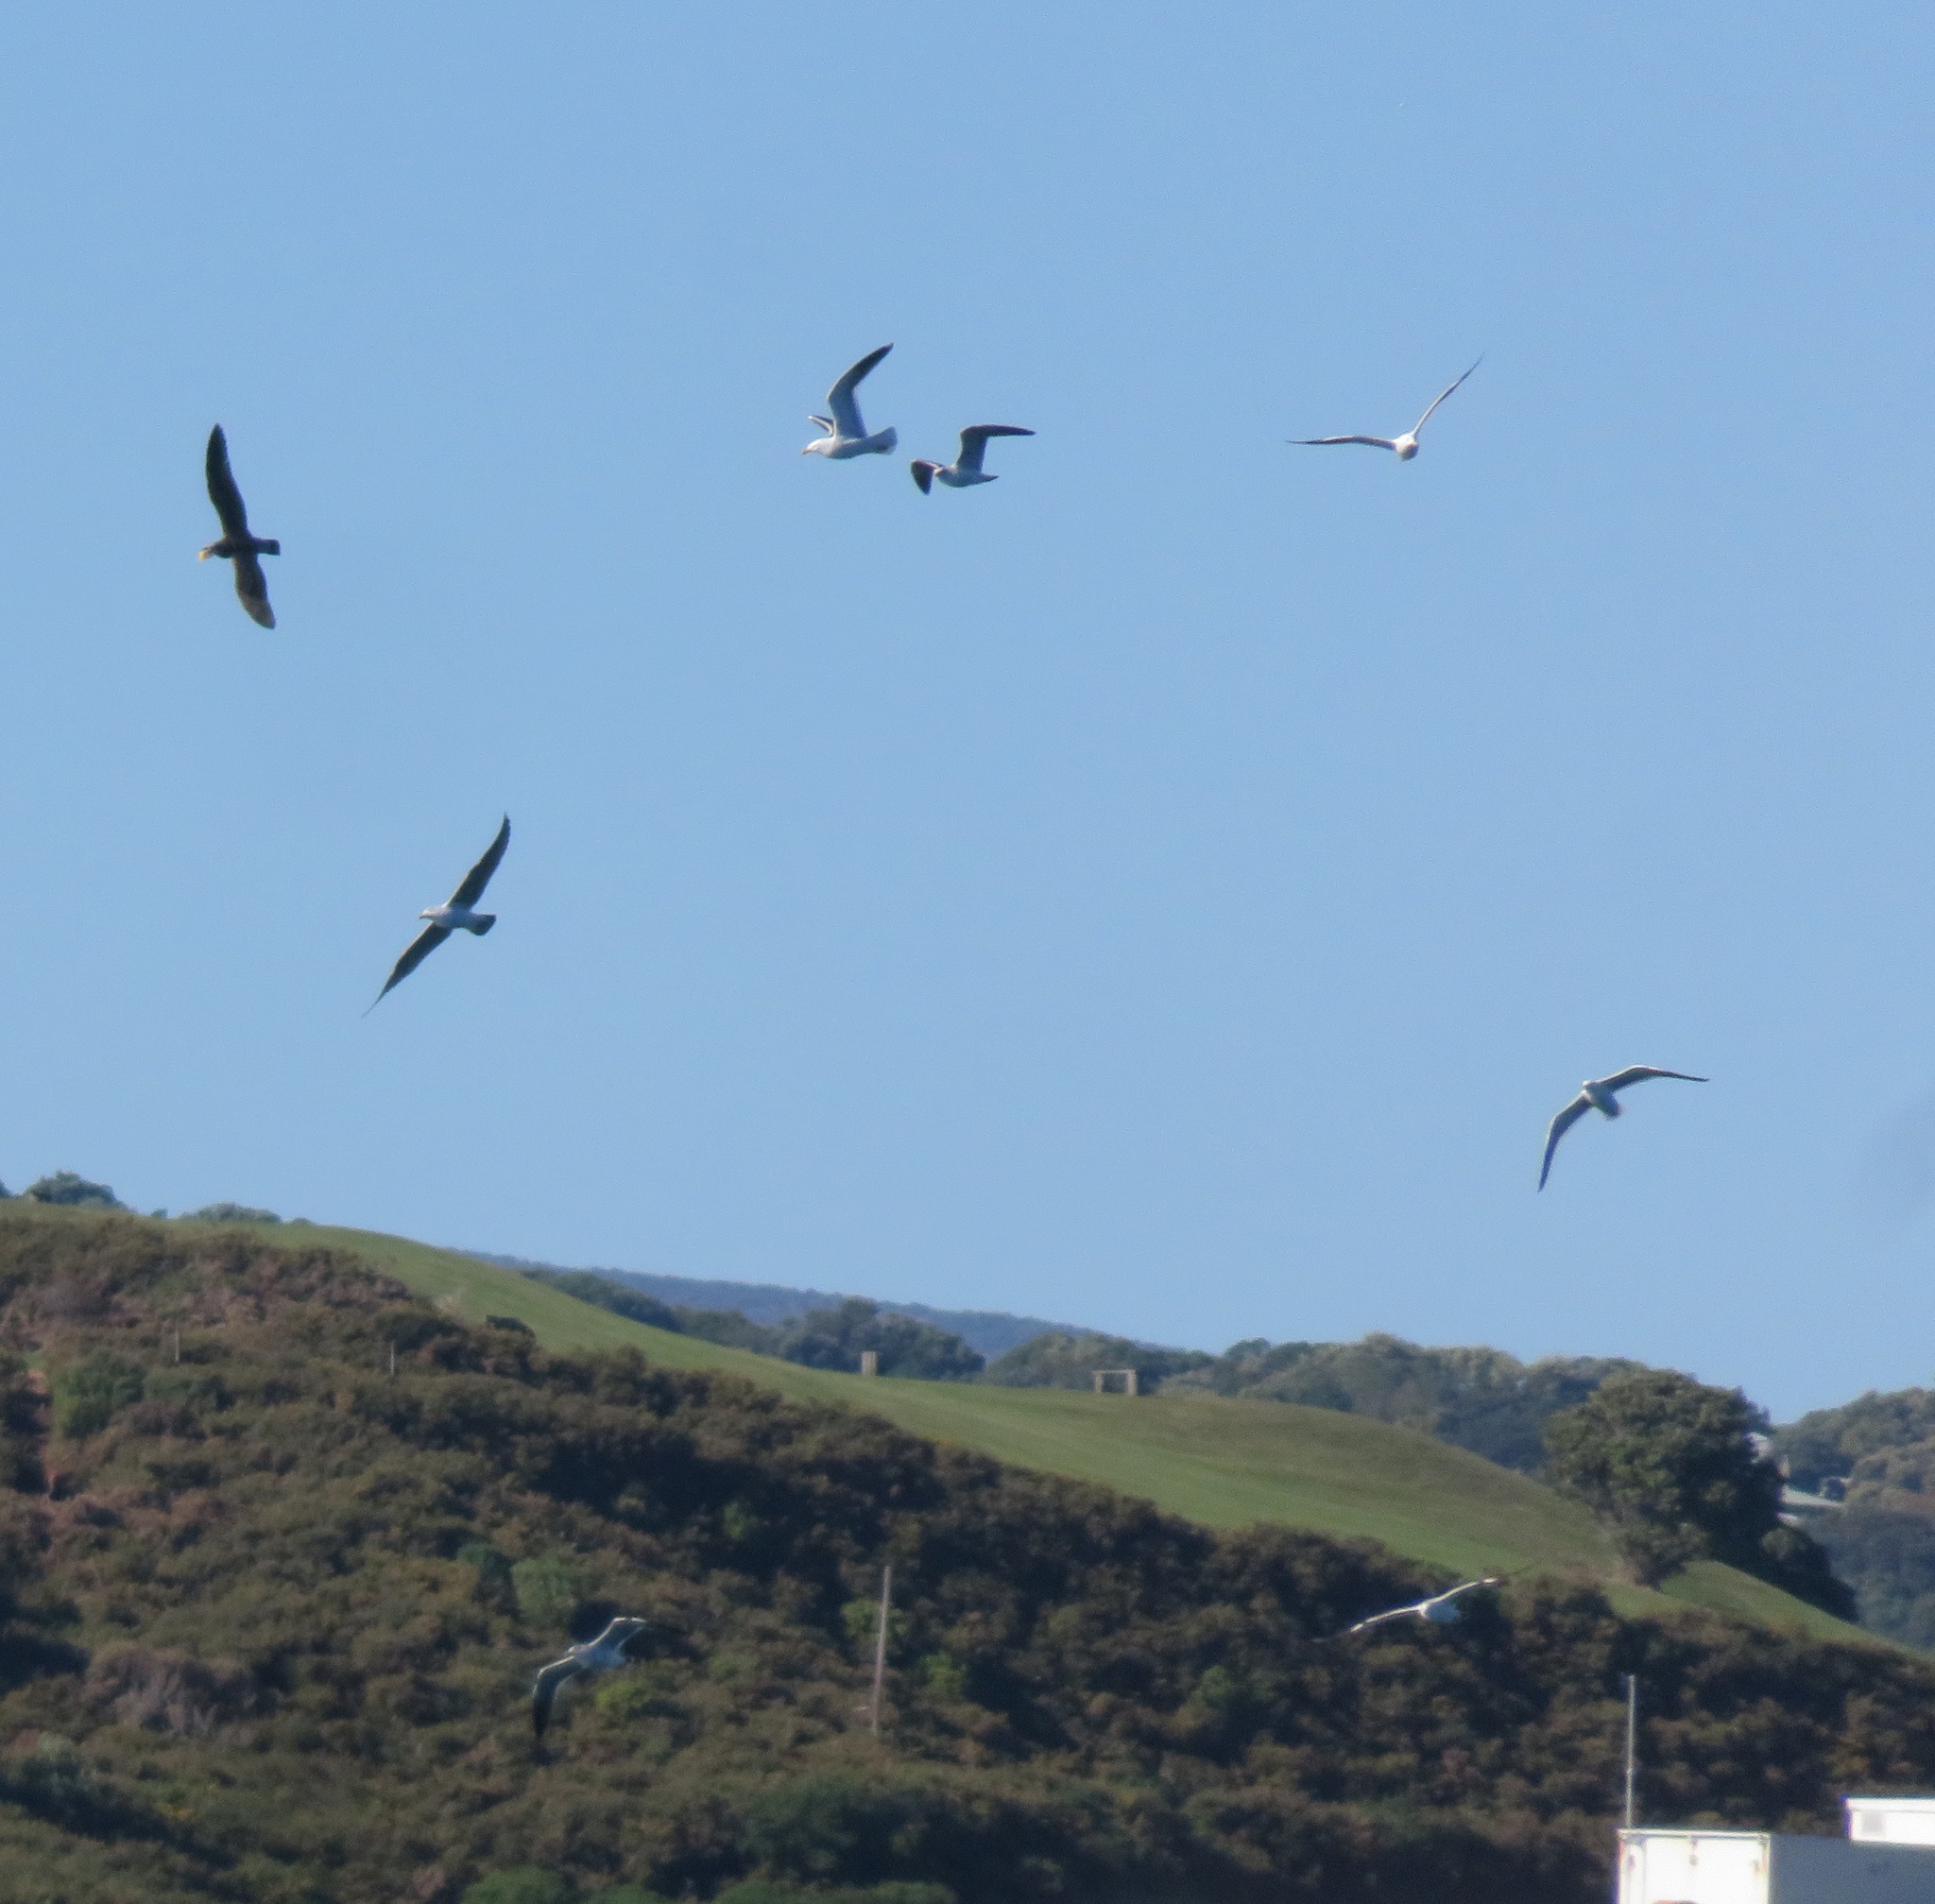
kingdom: Animalia
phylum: Chordata
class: Aves
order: Charadriiformes
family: Laridae
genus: Larus
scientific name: Larus dominicanus
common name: Kelp gull
